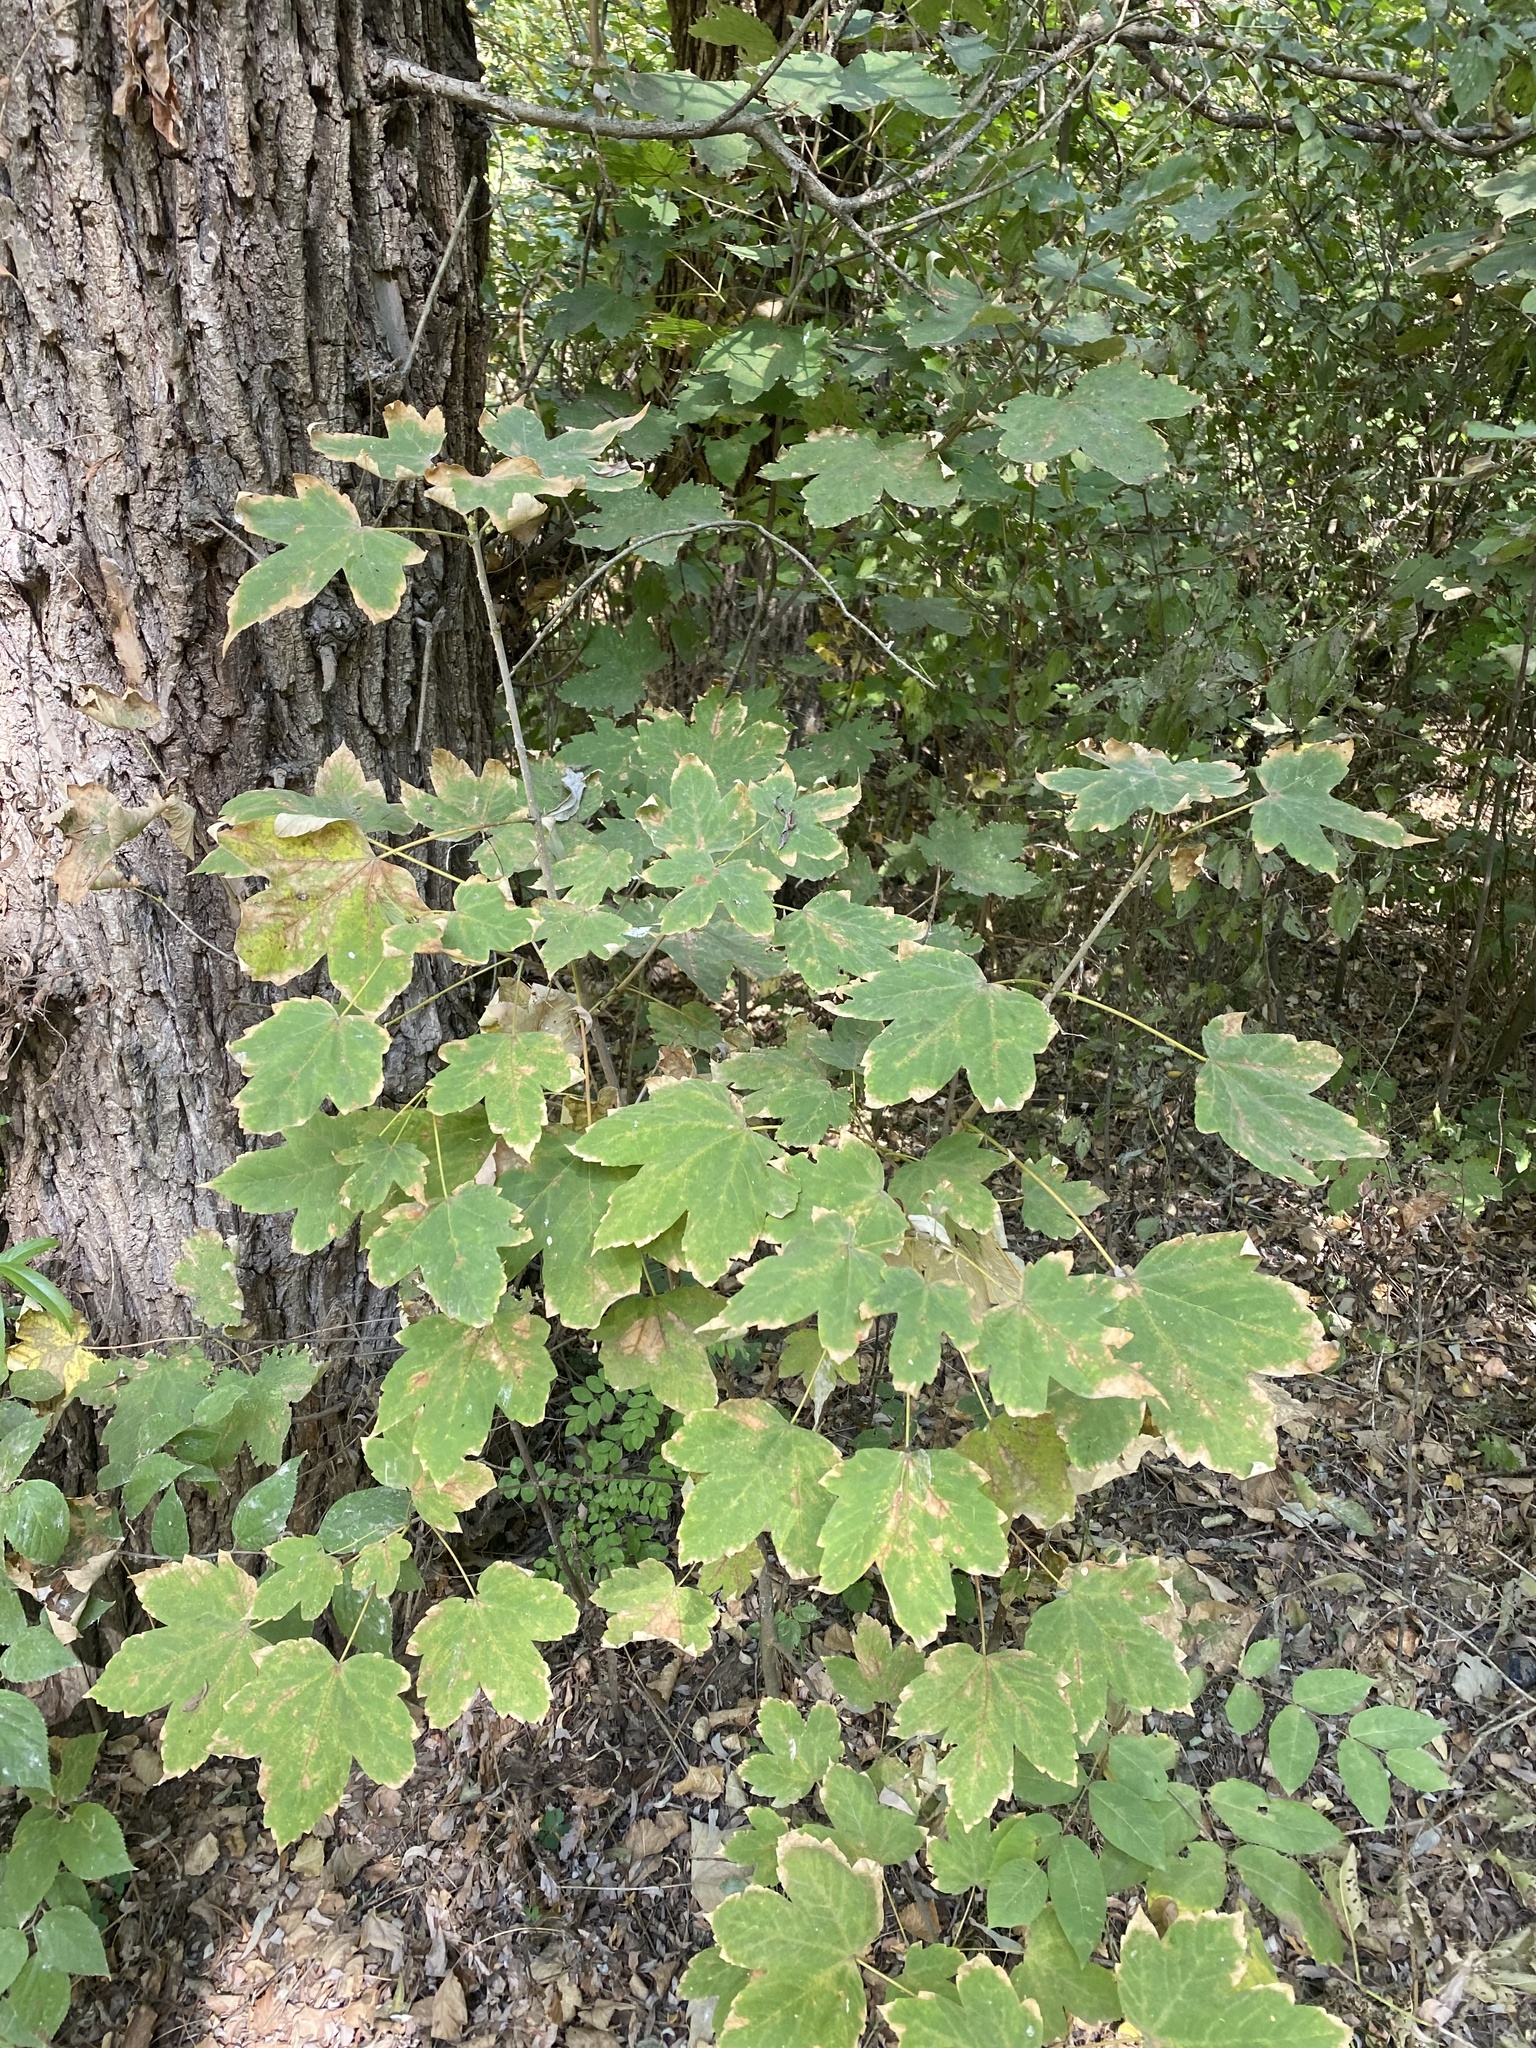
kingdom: Plantae
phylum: Tracheophyta
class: Magnoliopsida
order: Sapindales
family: Sapindaceae
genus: Acer
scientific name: Acer pseudoplatanus
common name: Sycamore
